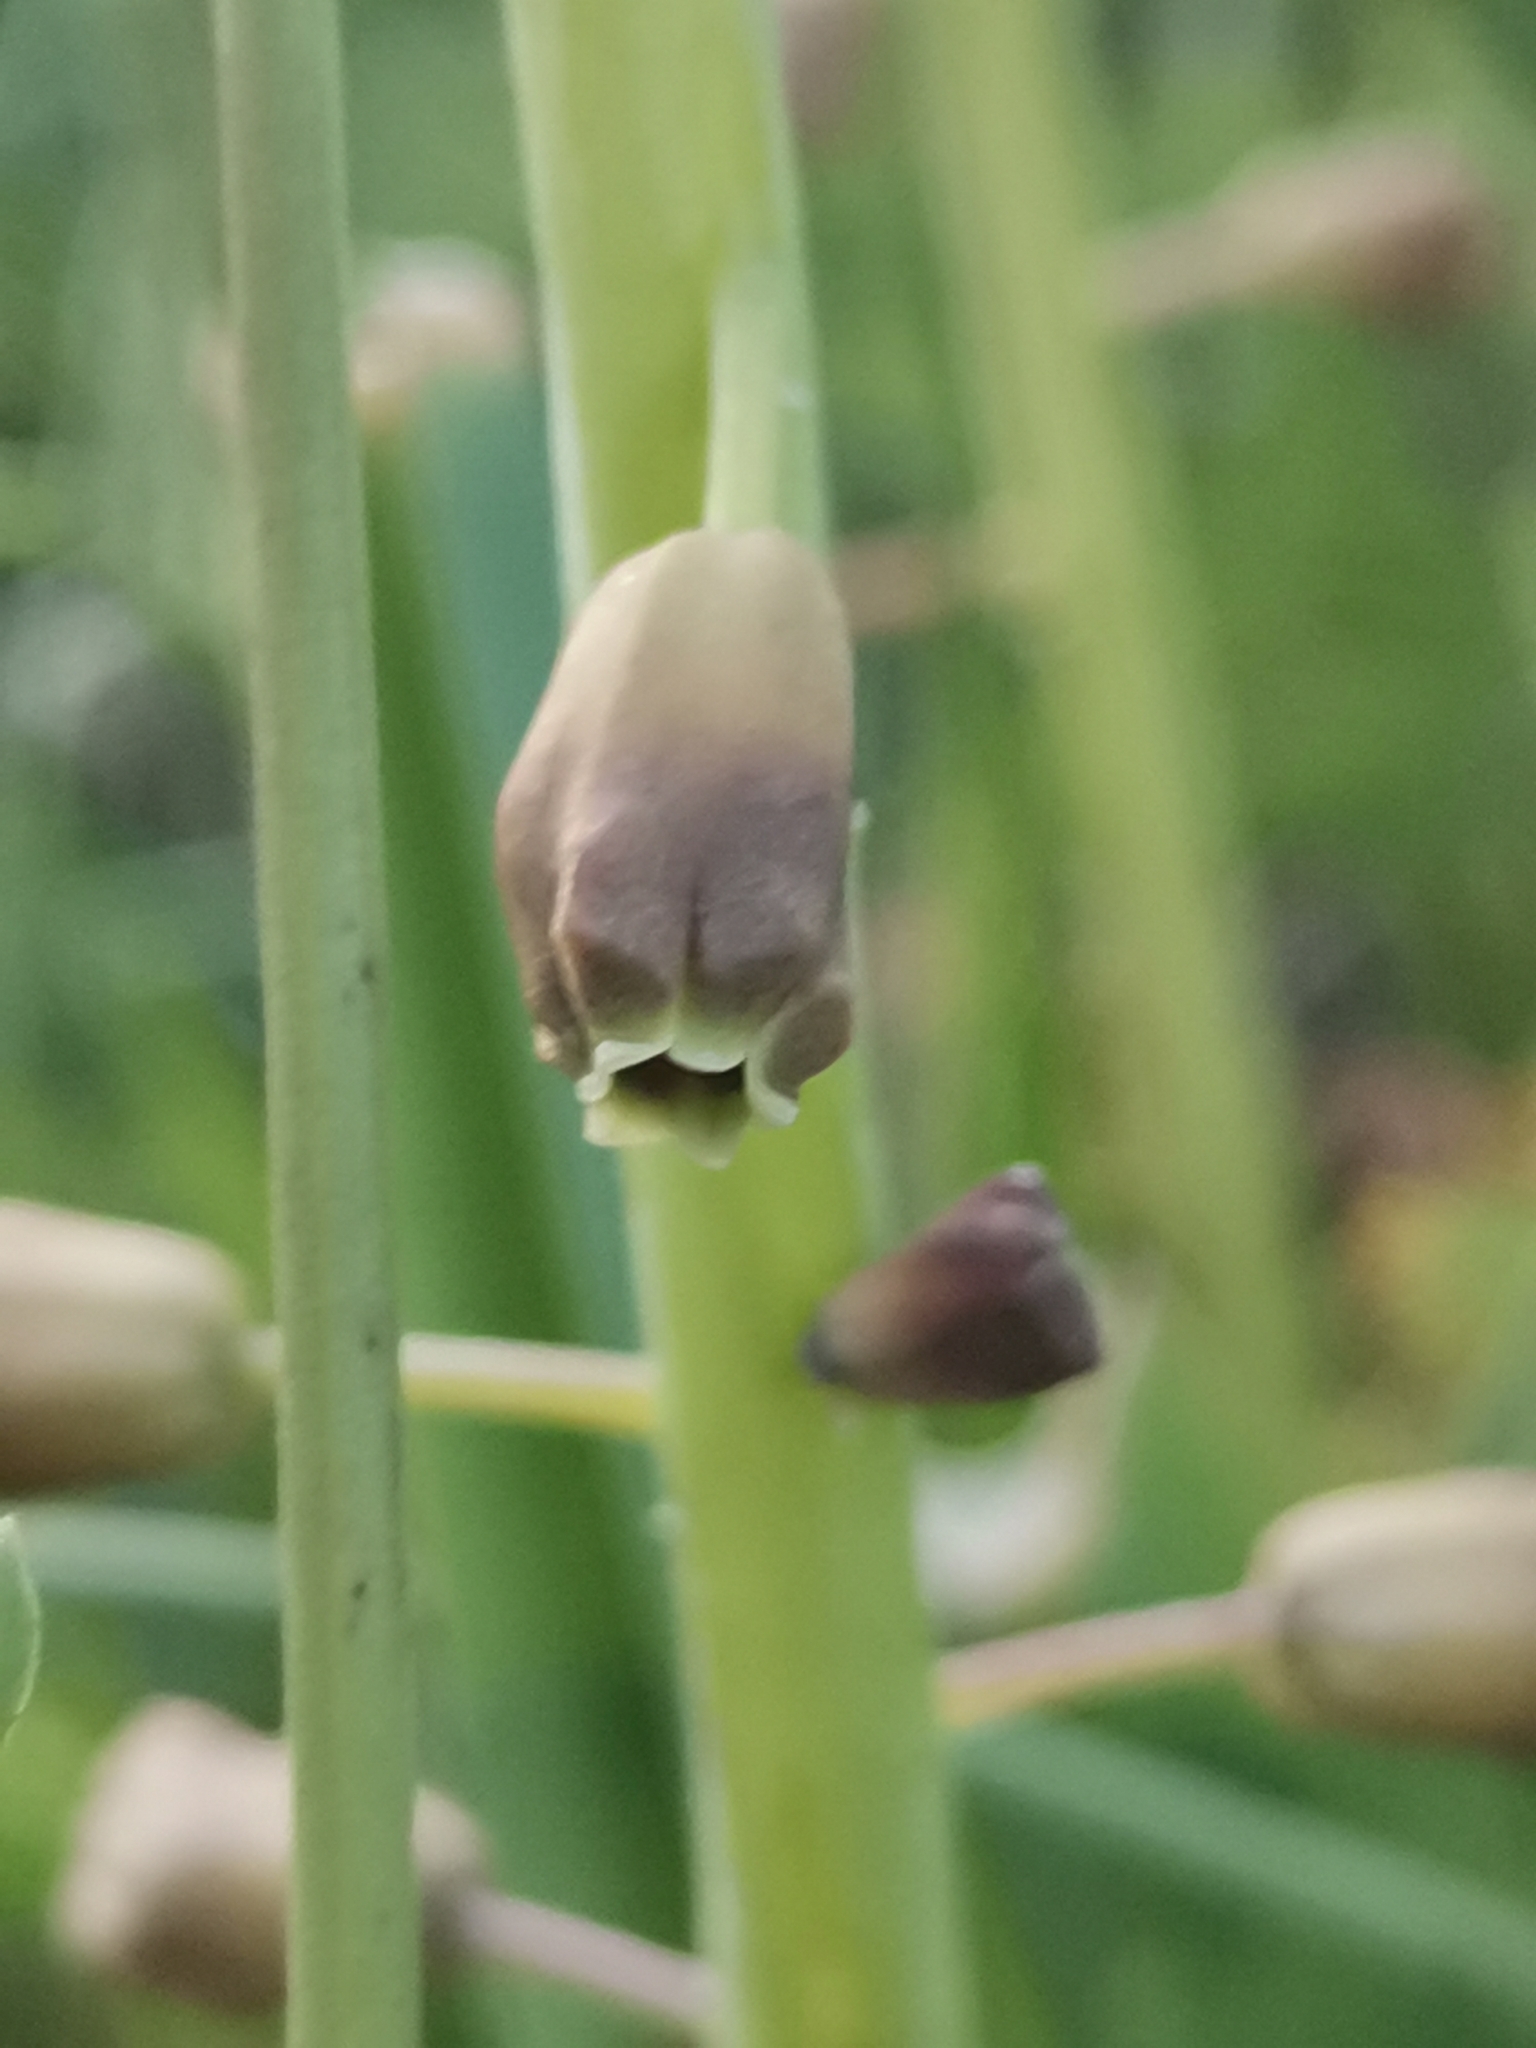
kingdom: Plantae
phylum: Tracheophyta
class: Liliopsida
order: Asparagales
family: Asparagaceae
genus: Muscari
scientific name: Muscari comosum
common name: Tassel hyacinth
